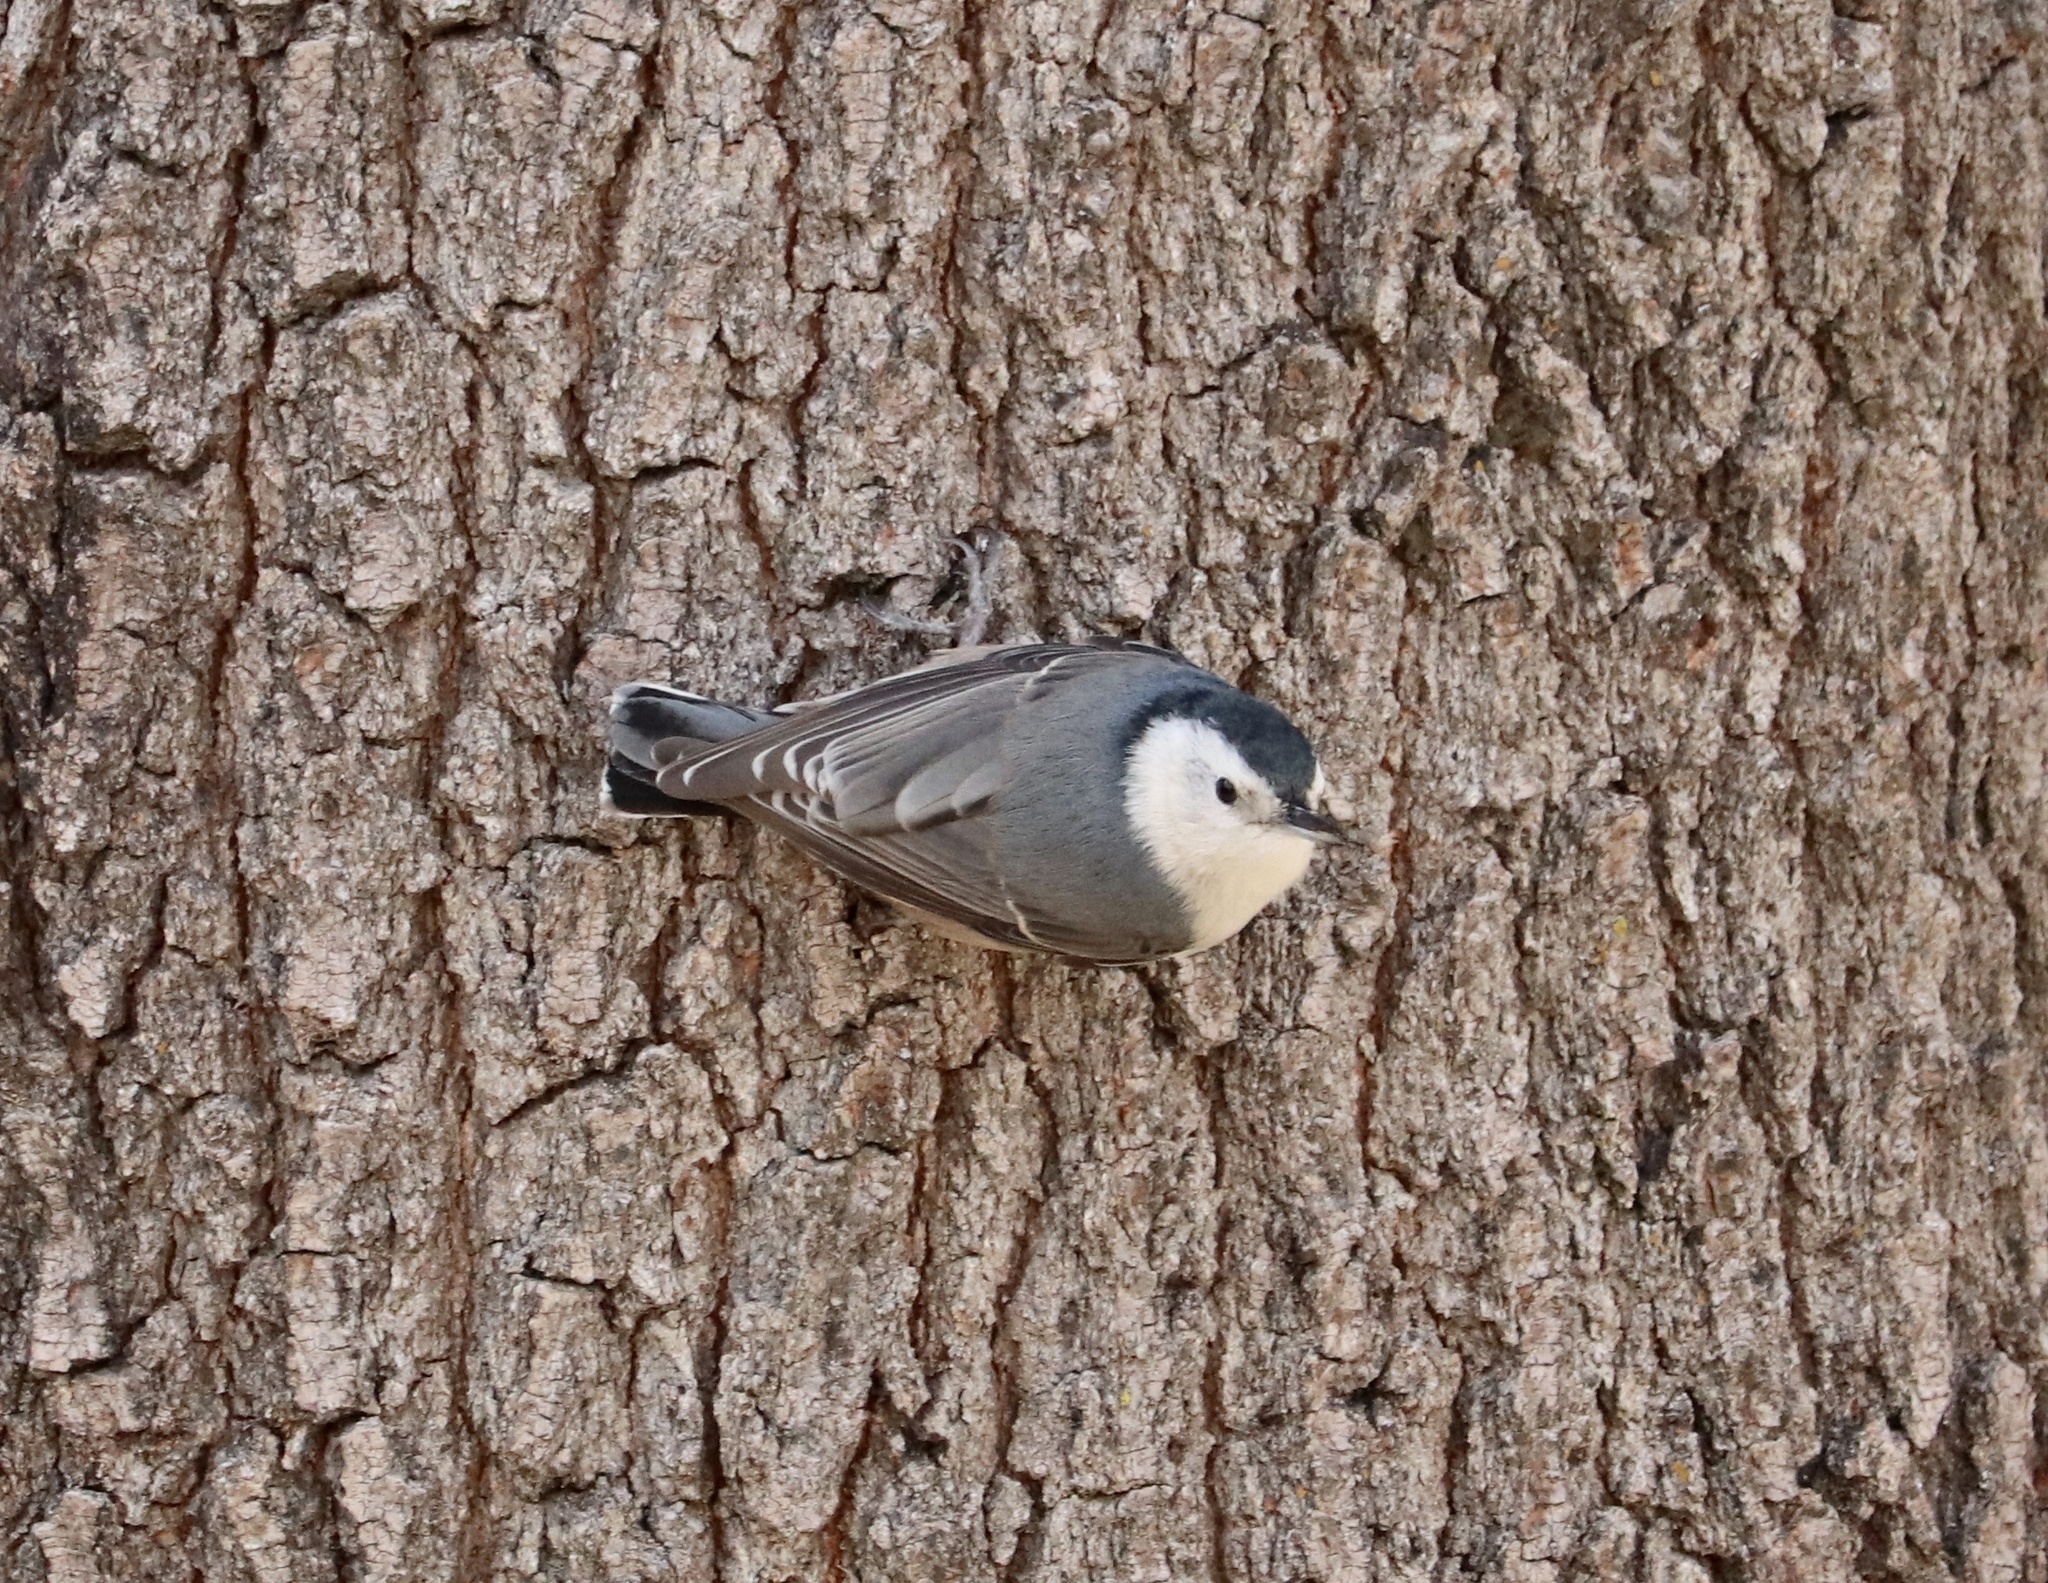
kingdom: Animalia
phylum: Chordata
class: Aves
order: Passeriformes
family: Sittidae
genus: Sitta
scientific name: Sitta carolinensis
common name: White-breasted nuthatch
